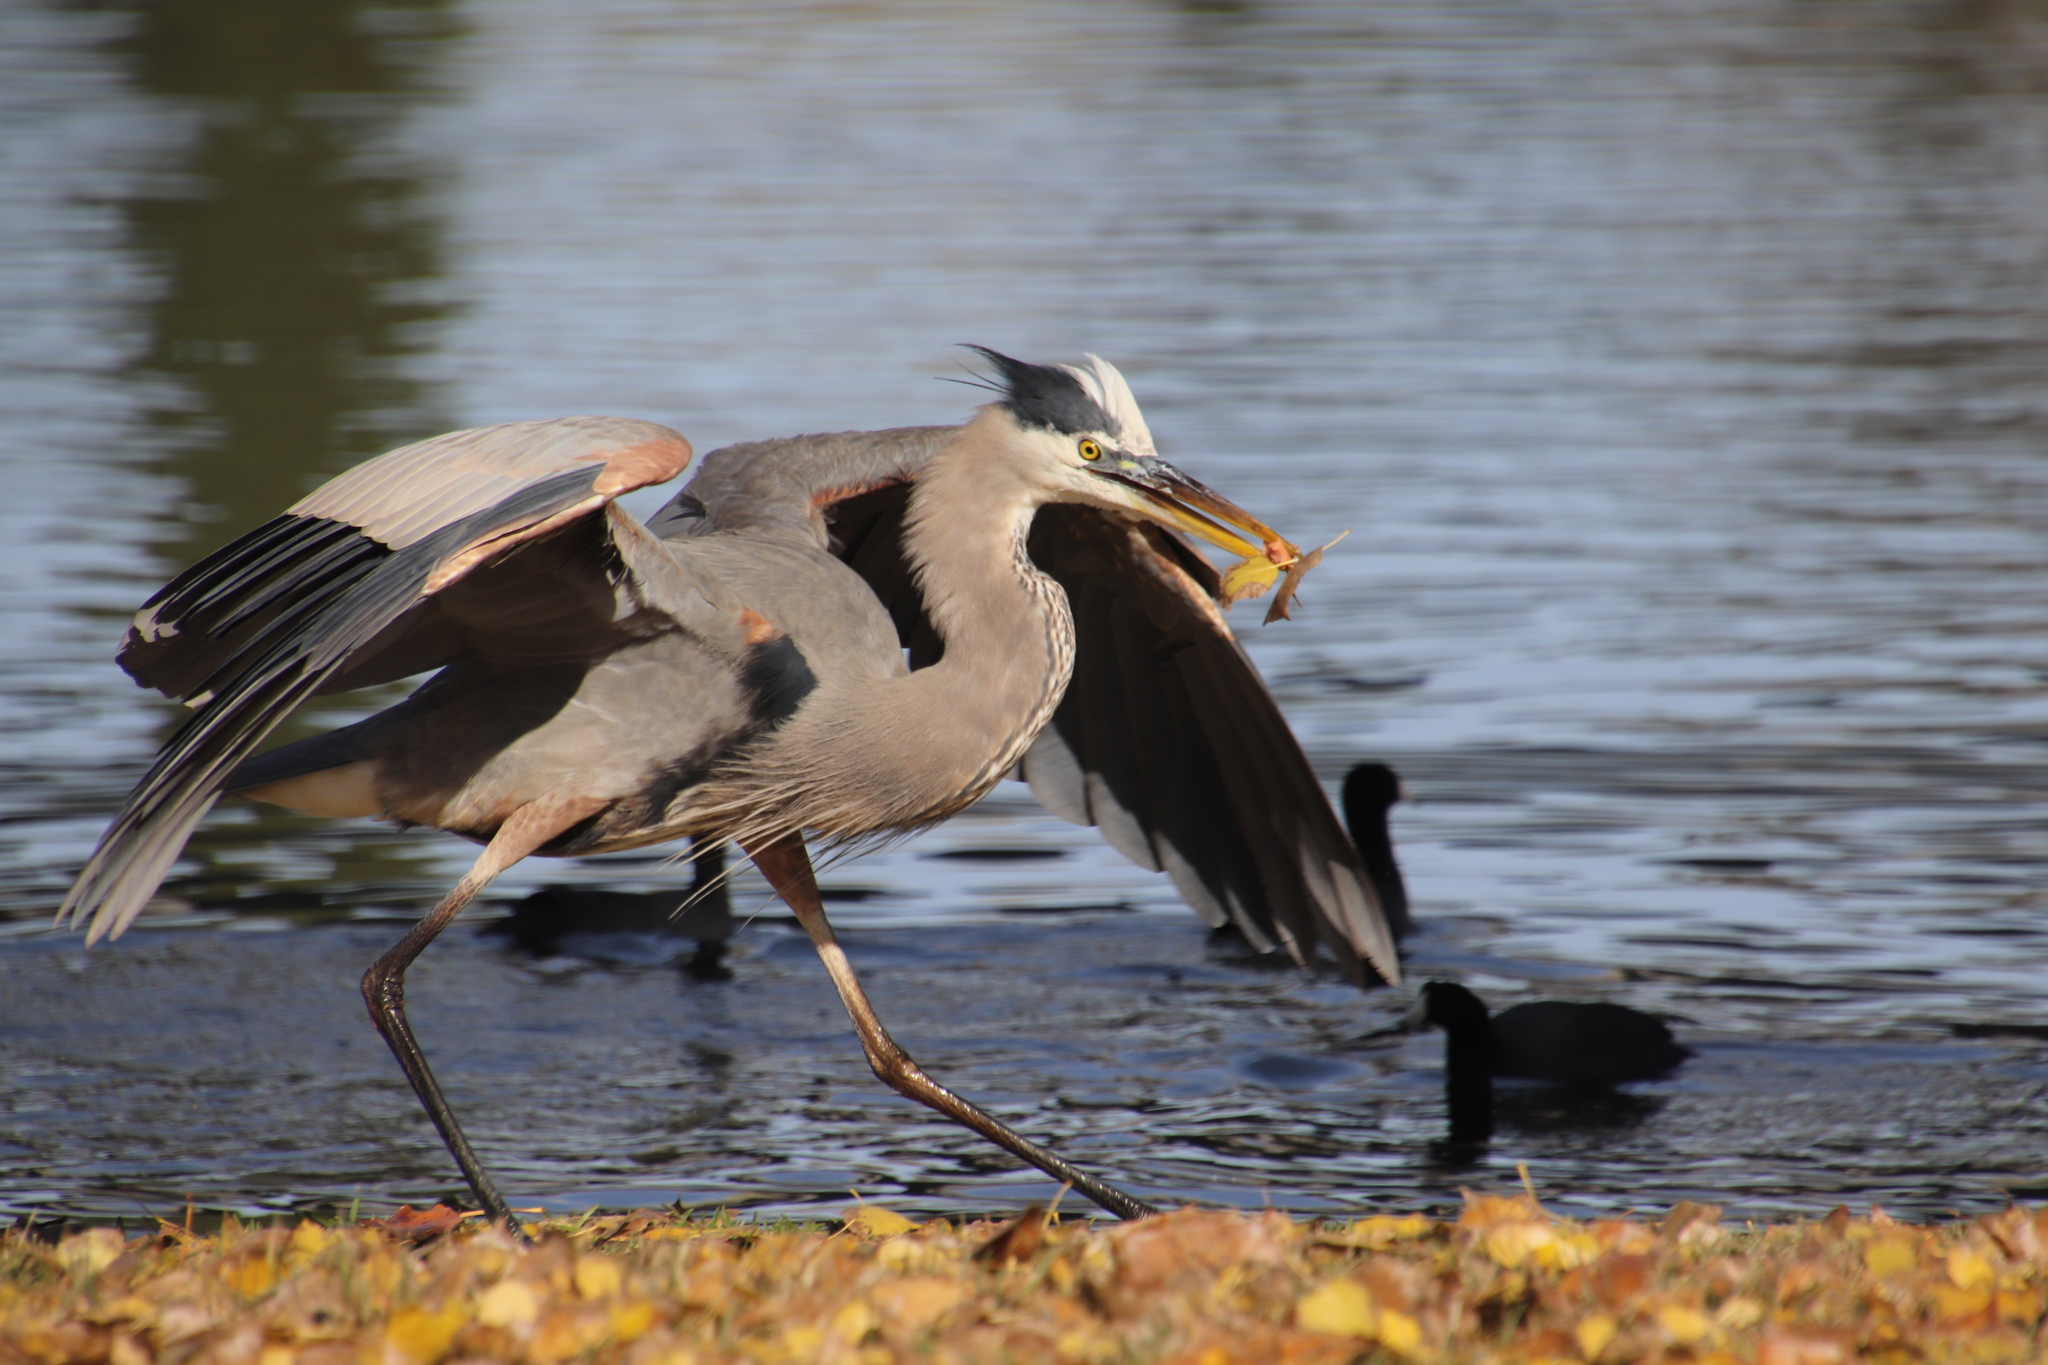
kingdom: Animalia
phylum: Chordata
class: Aves
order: Pelecaniformes
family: Ardeidae
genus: Ardea
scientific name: Ardea herodias
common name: Great blue heron
